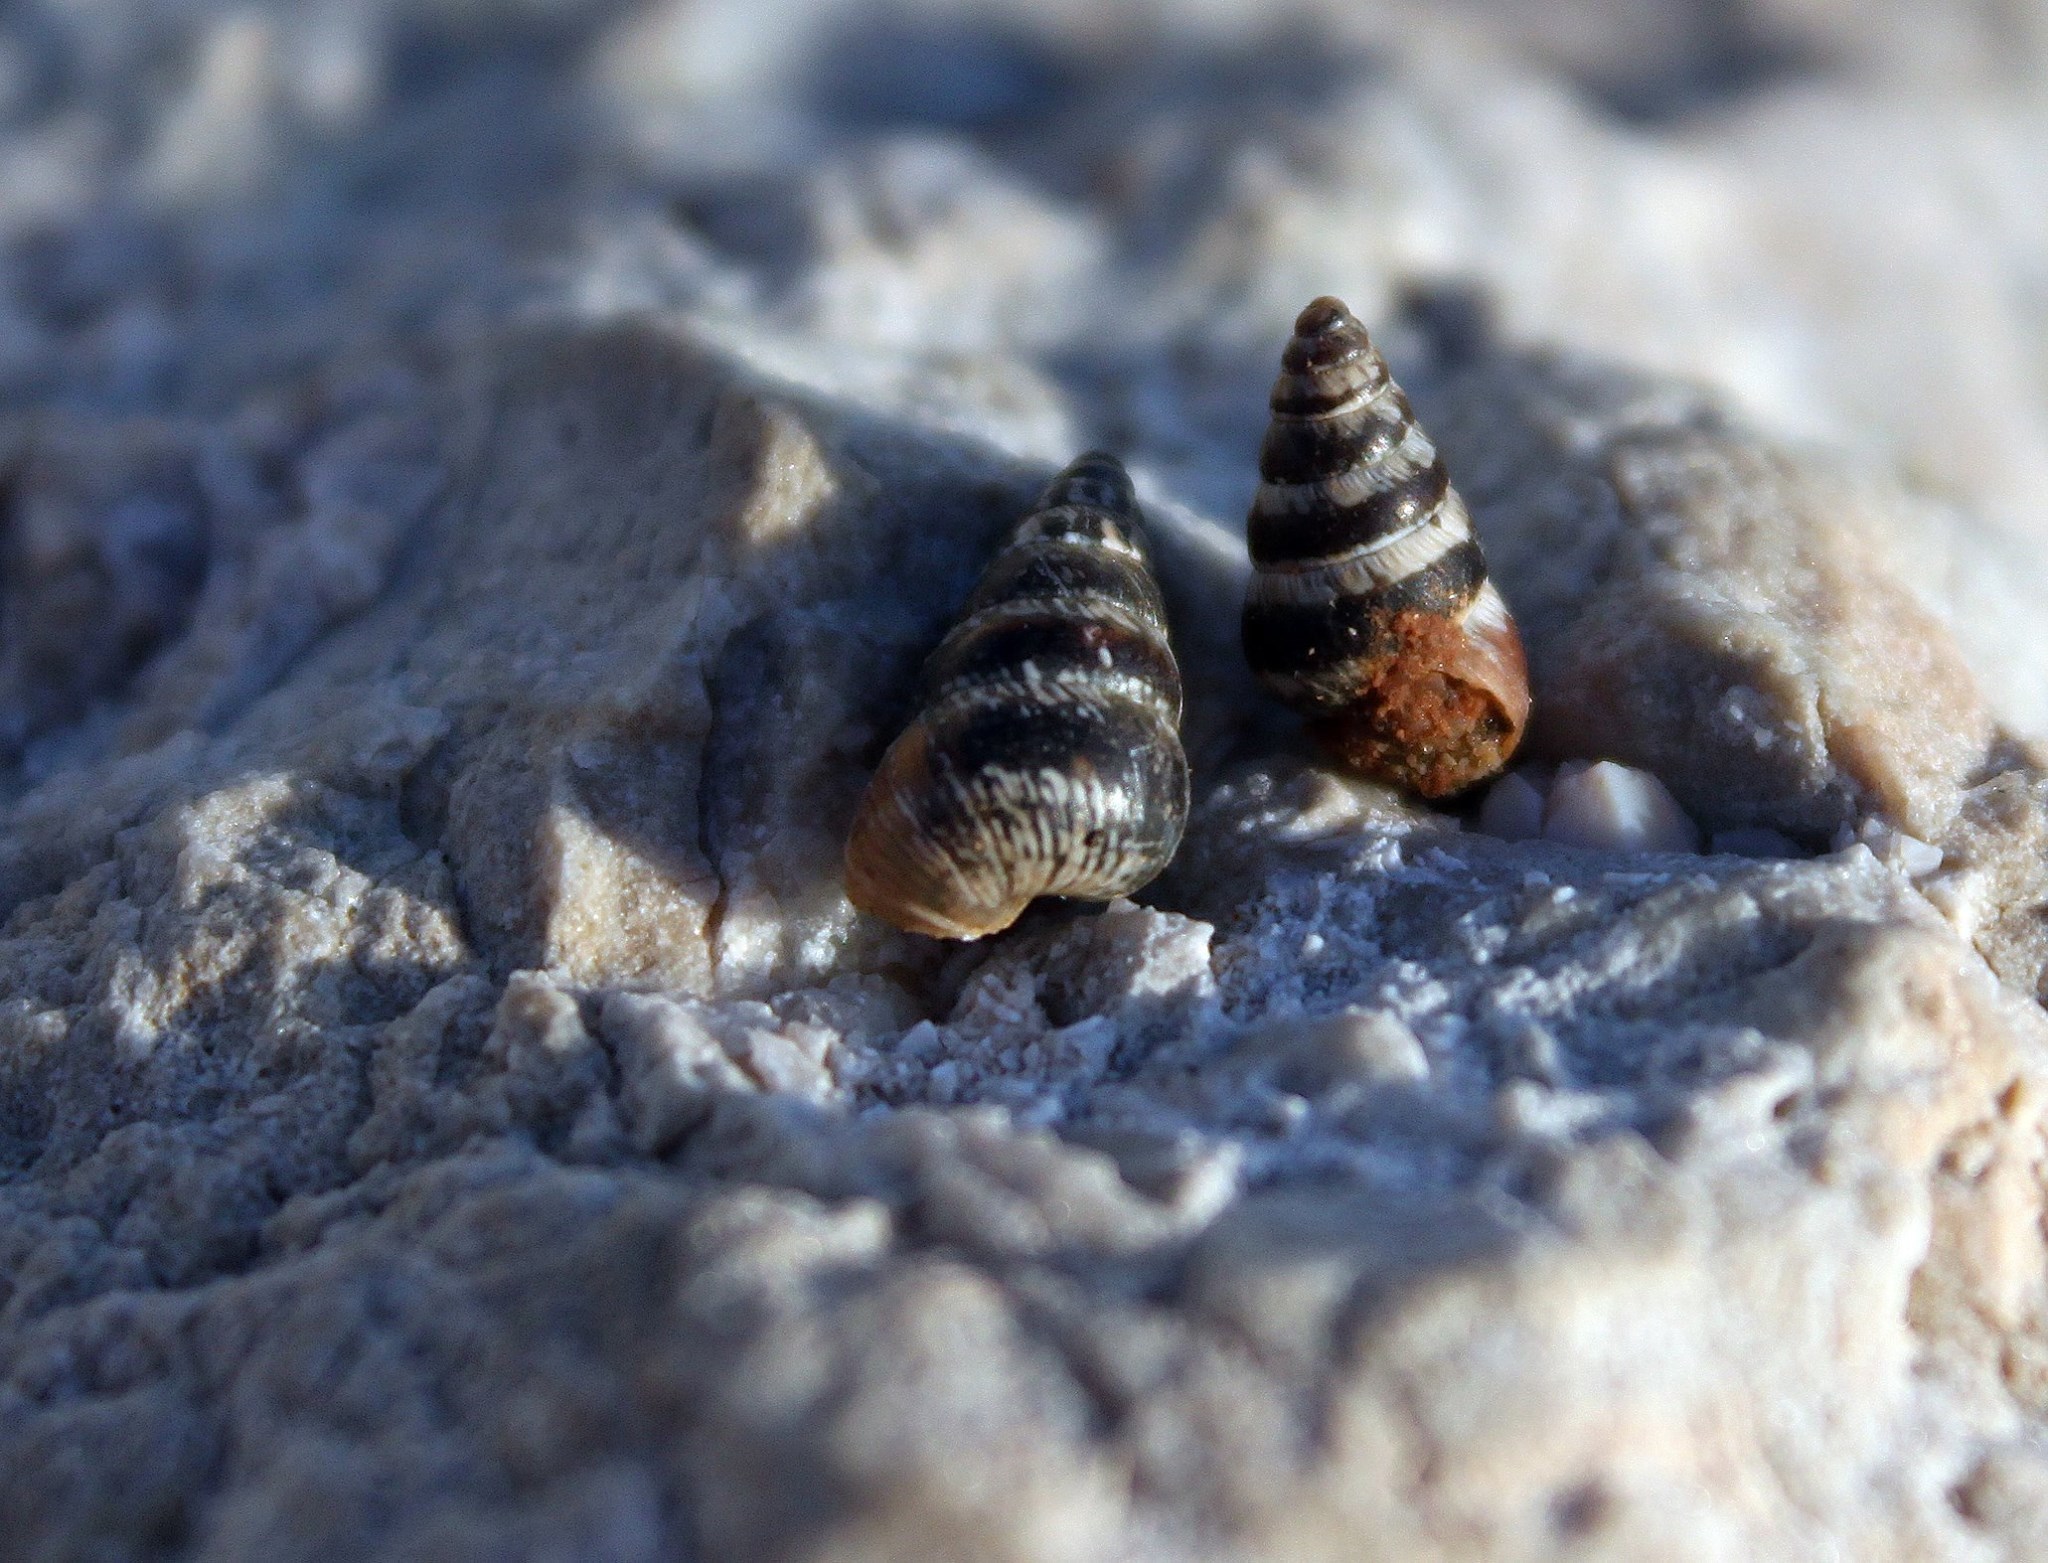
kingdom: Animalia
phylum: Mollusca
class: Gastropoda
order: Stylommatophora
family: Geomitridae
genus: Cochlicella
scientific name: Cochlicella acuta
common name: Pointed snail
